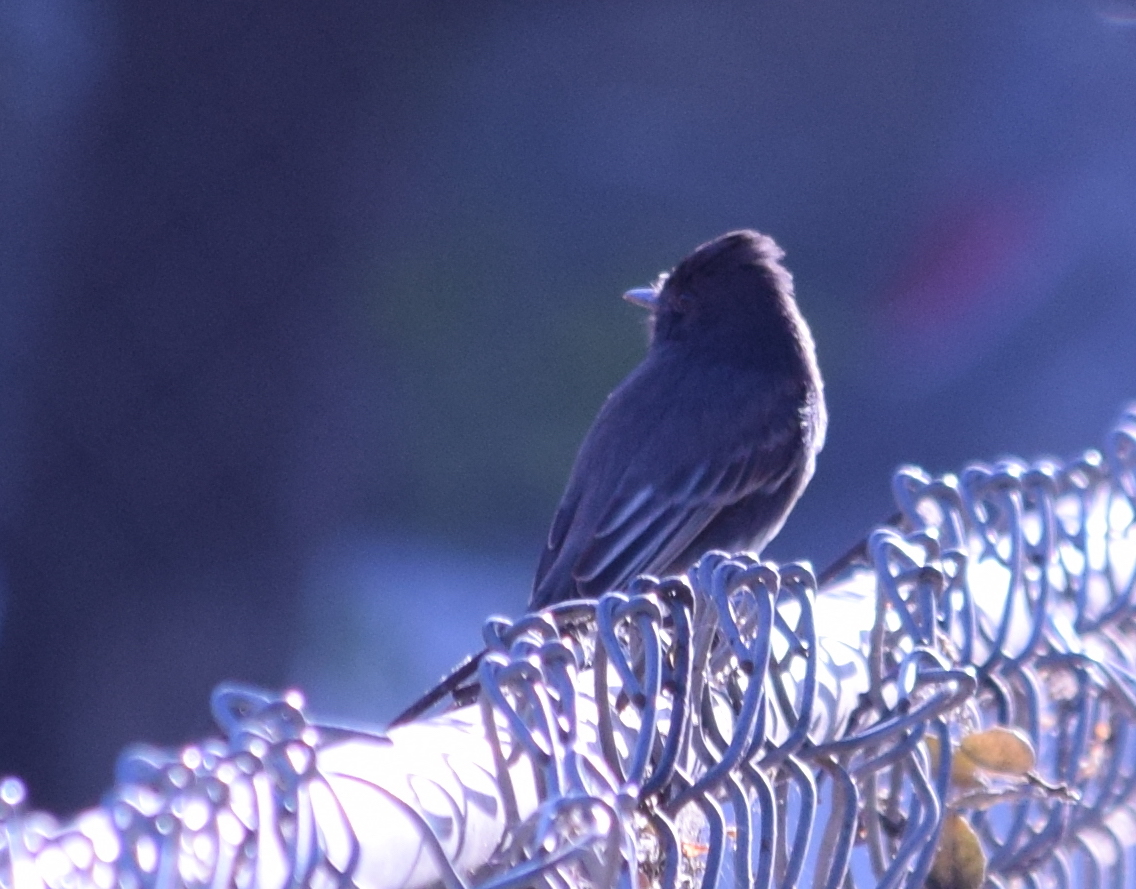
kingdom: Animalia
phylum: Chordata
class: Aves
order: Passeriformes
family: Tyrannidae
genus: Sayornis
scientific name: Sayornis nigricans
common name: Black phoebe
